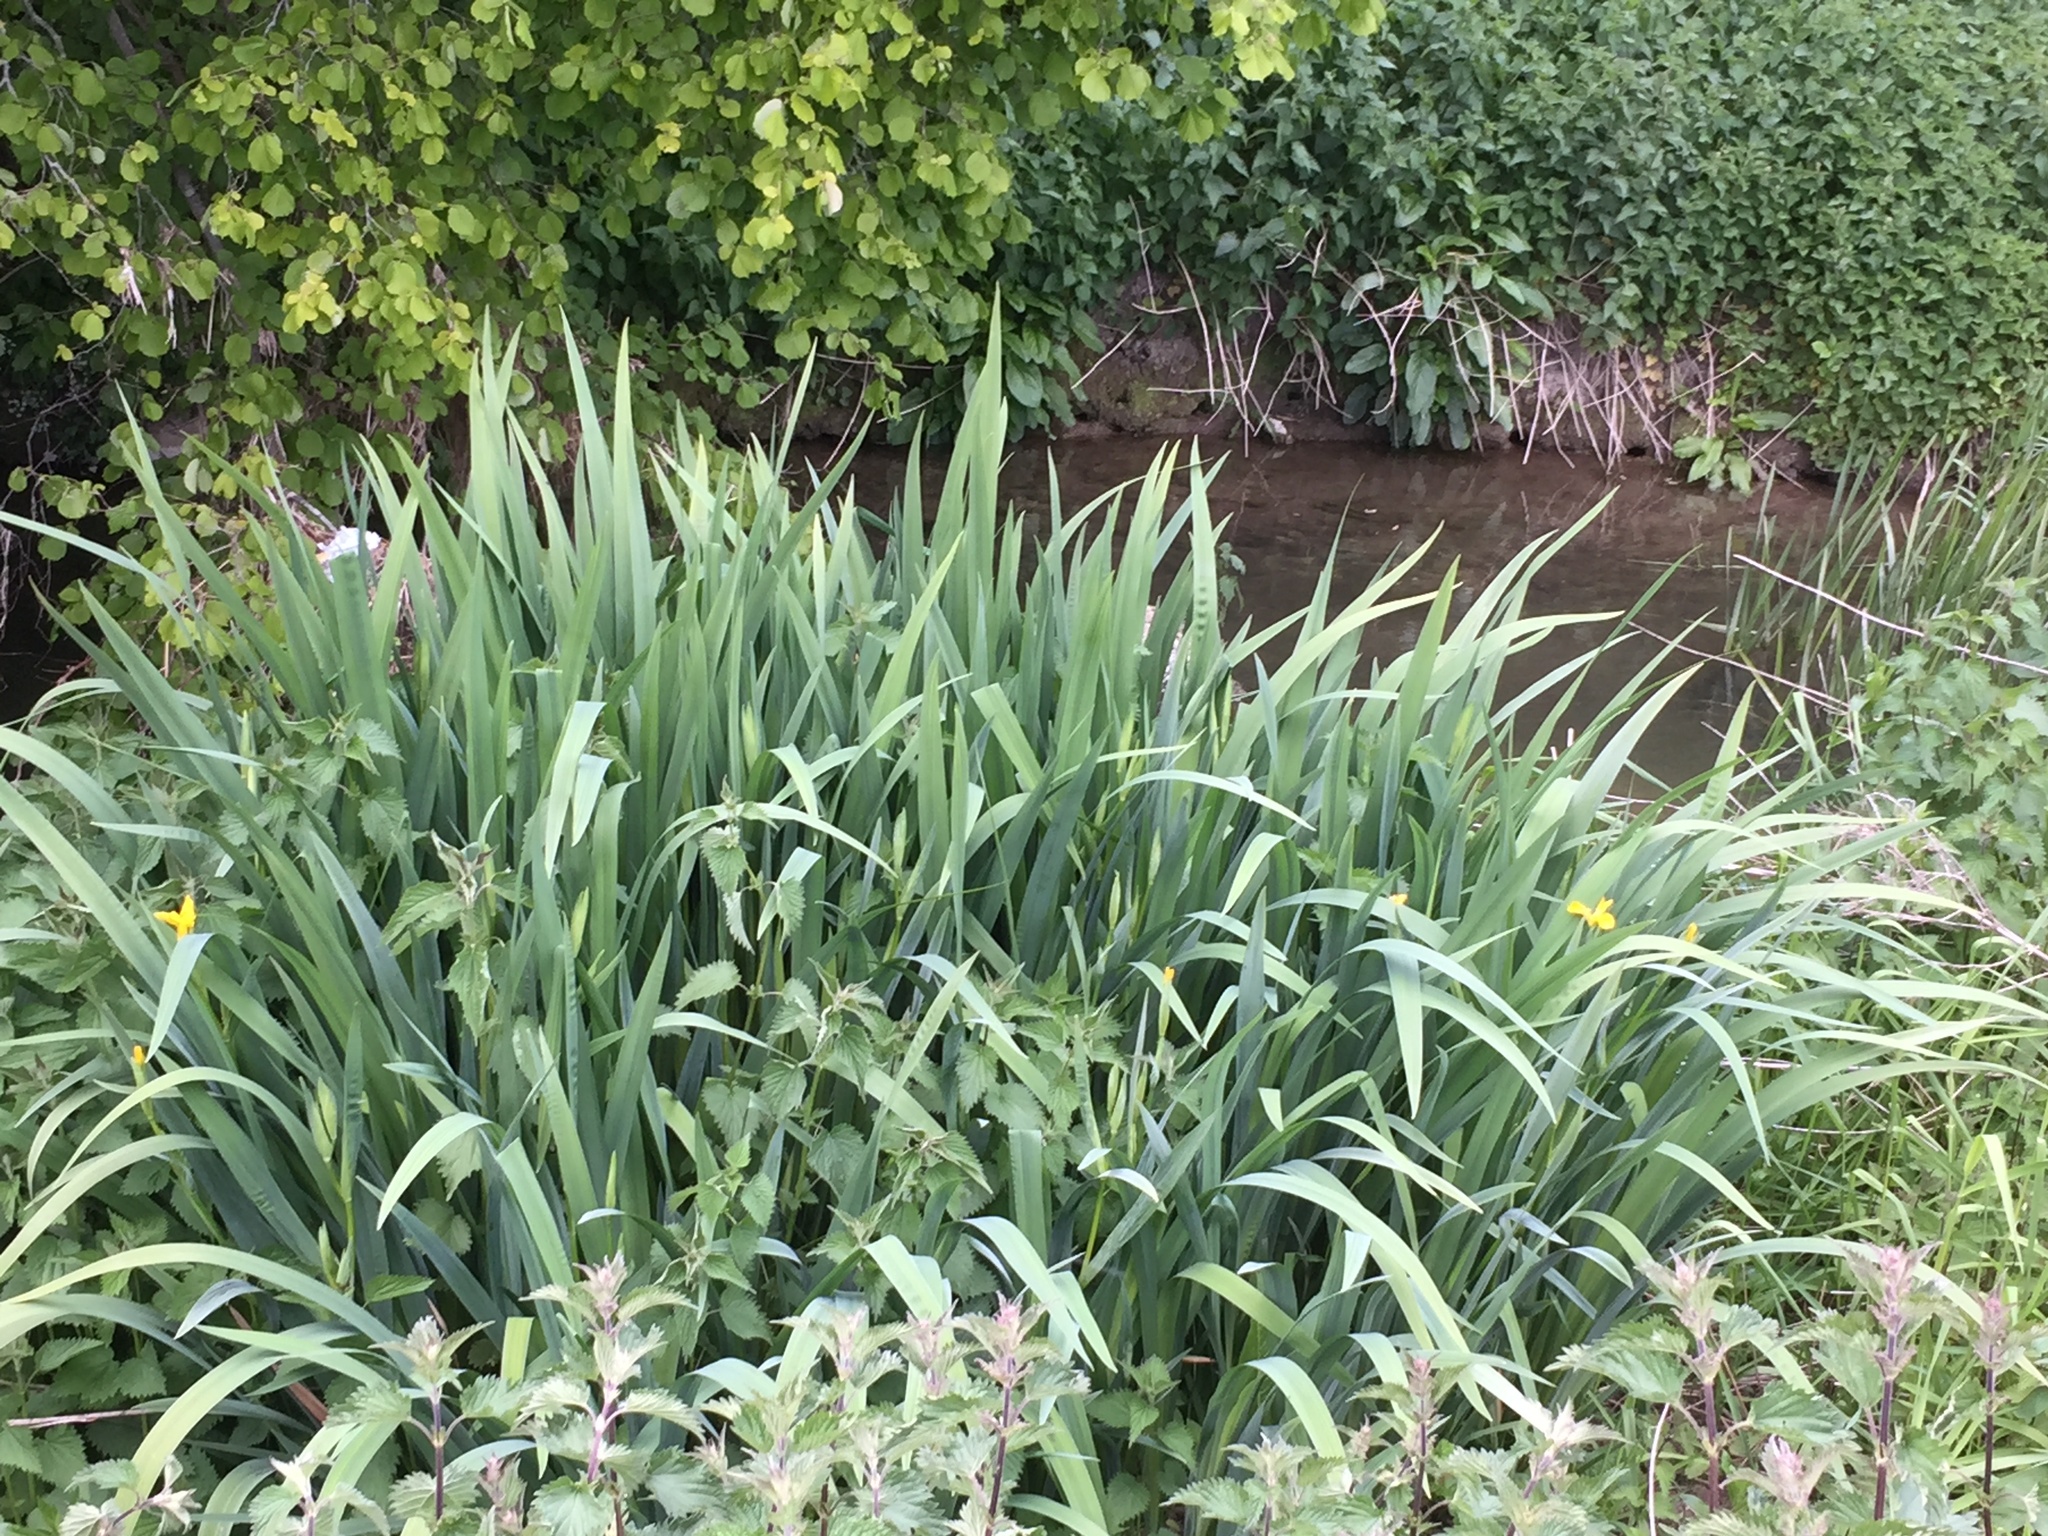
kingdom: Plantae
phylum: Tracheophyta
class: Liliopsida
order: Asparagales
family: Iridaceae
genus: Iris
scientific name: Iris pseudacorus
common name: Yellow flag
